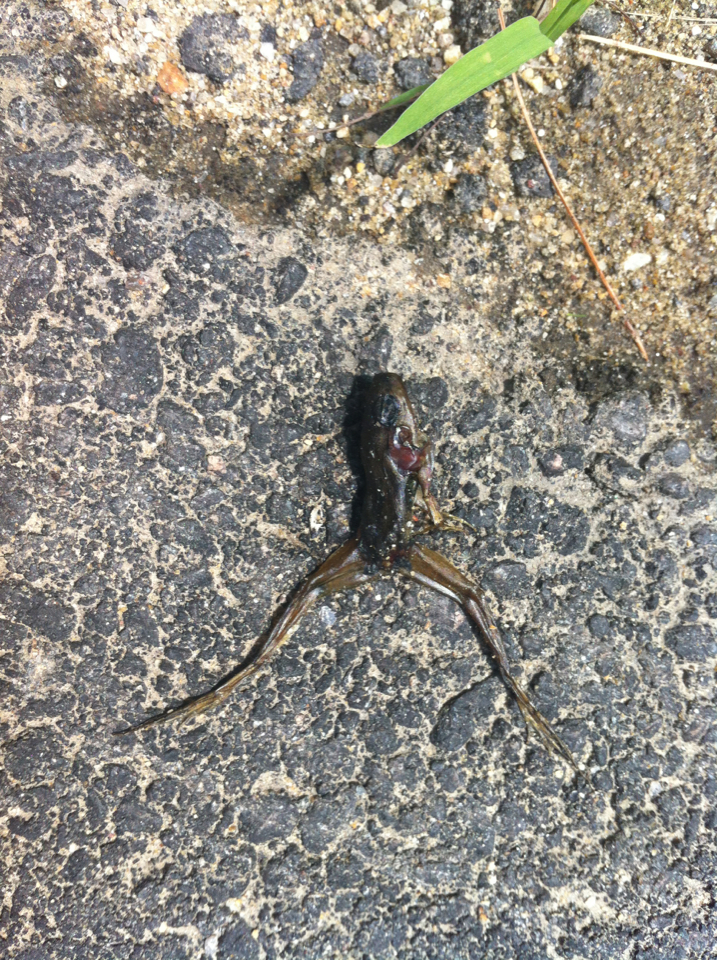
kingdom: Animalia
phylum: Chordata
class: Amphibia
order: Anura
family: Ranidae
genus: Lithobates
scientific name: Lithobates
